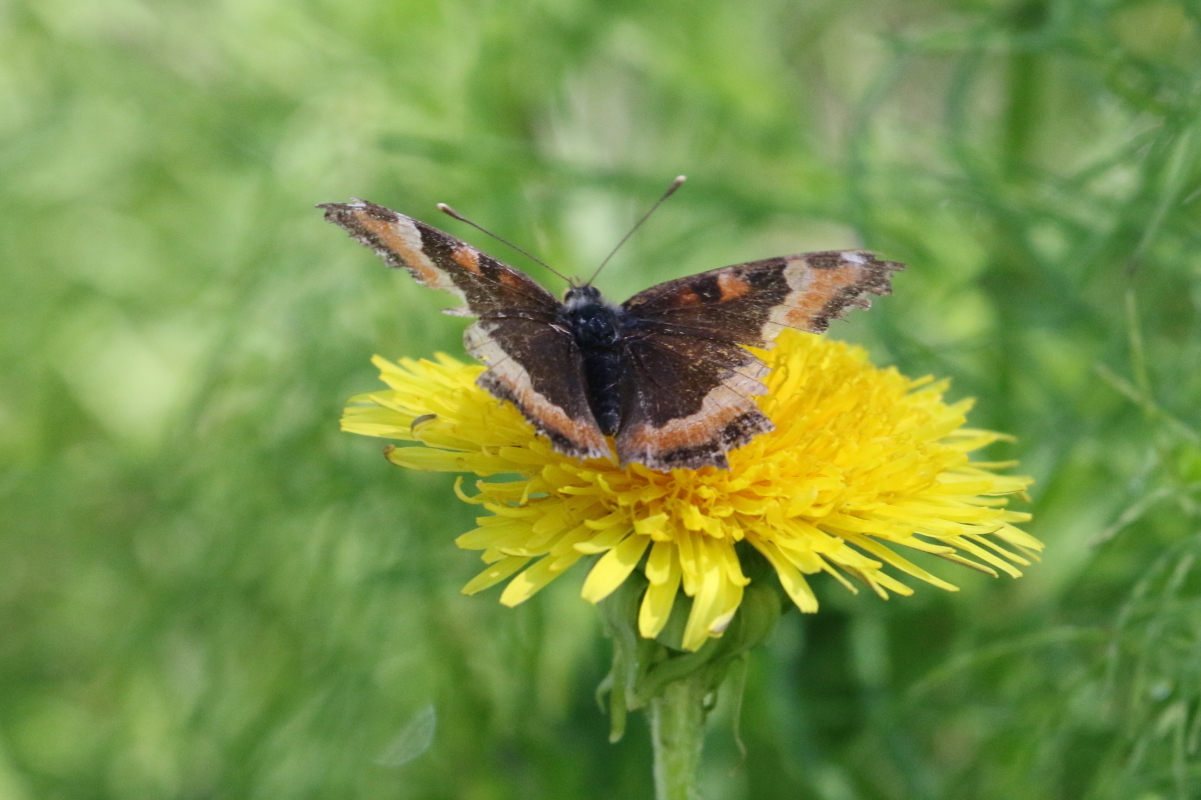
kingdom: Animalia
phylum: Arthropoda
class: Insecta
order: Lepidoptera
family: Nymphalidae
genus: Aglais
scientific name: Aglais milberti
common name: Milbert's tortoiseshell
